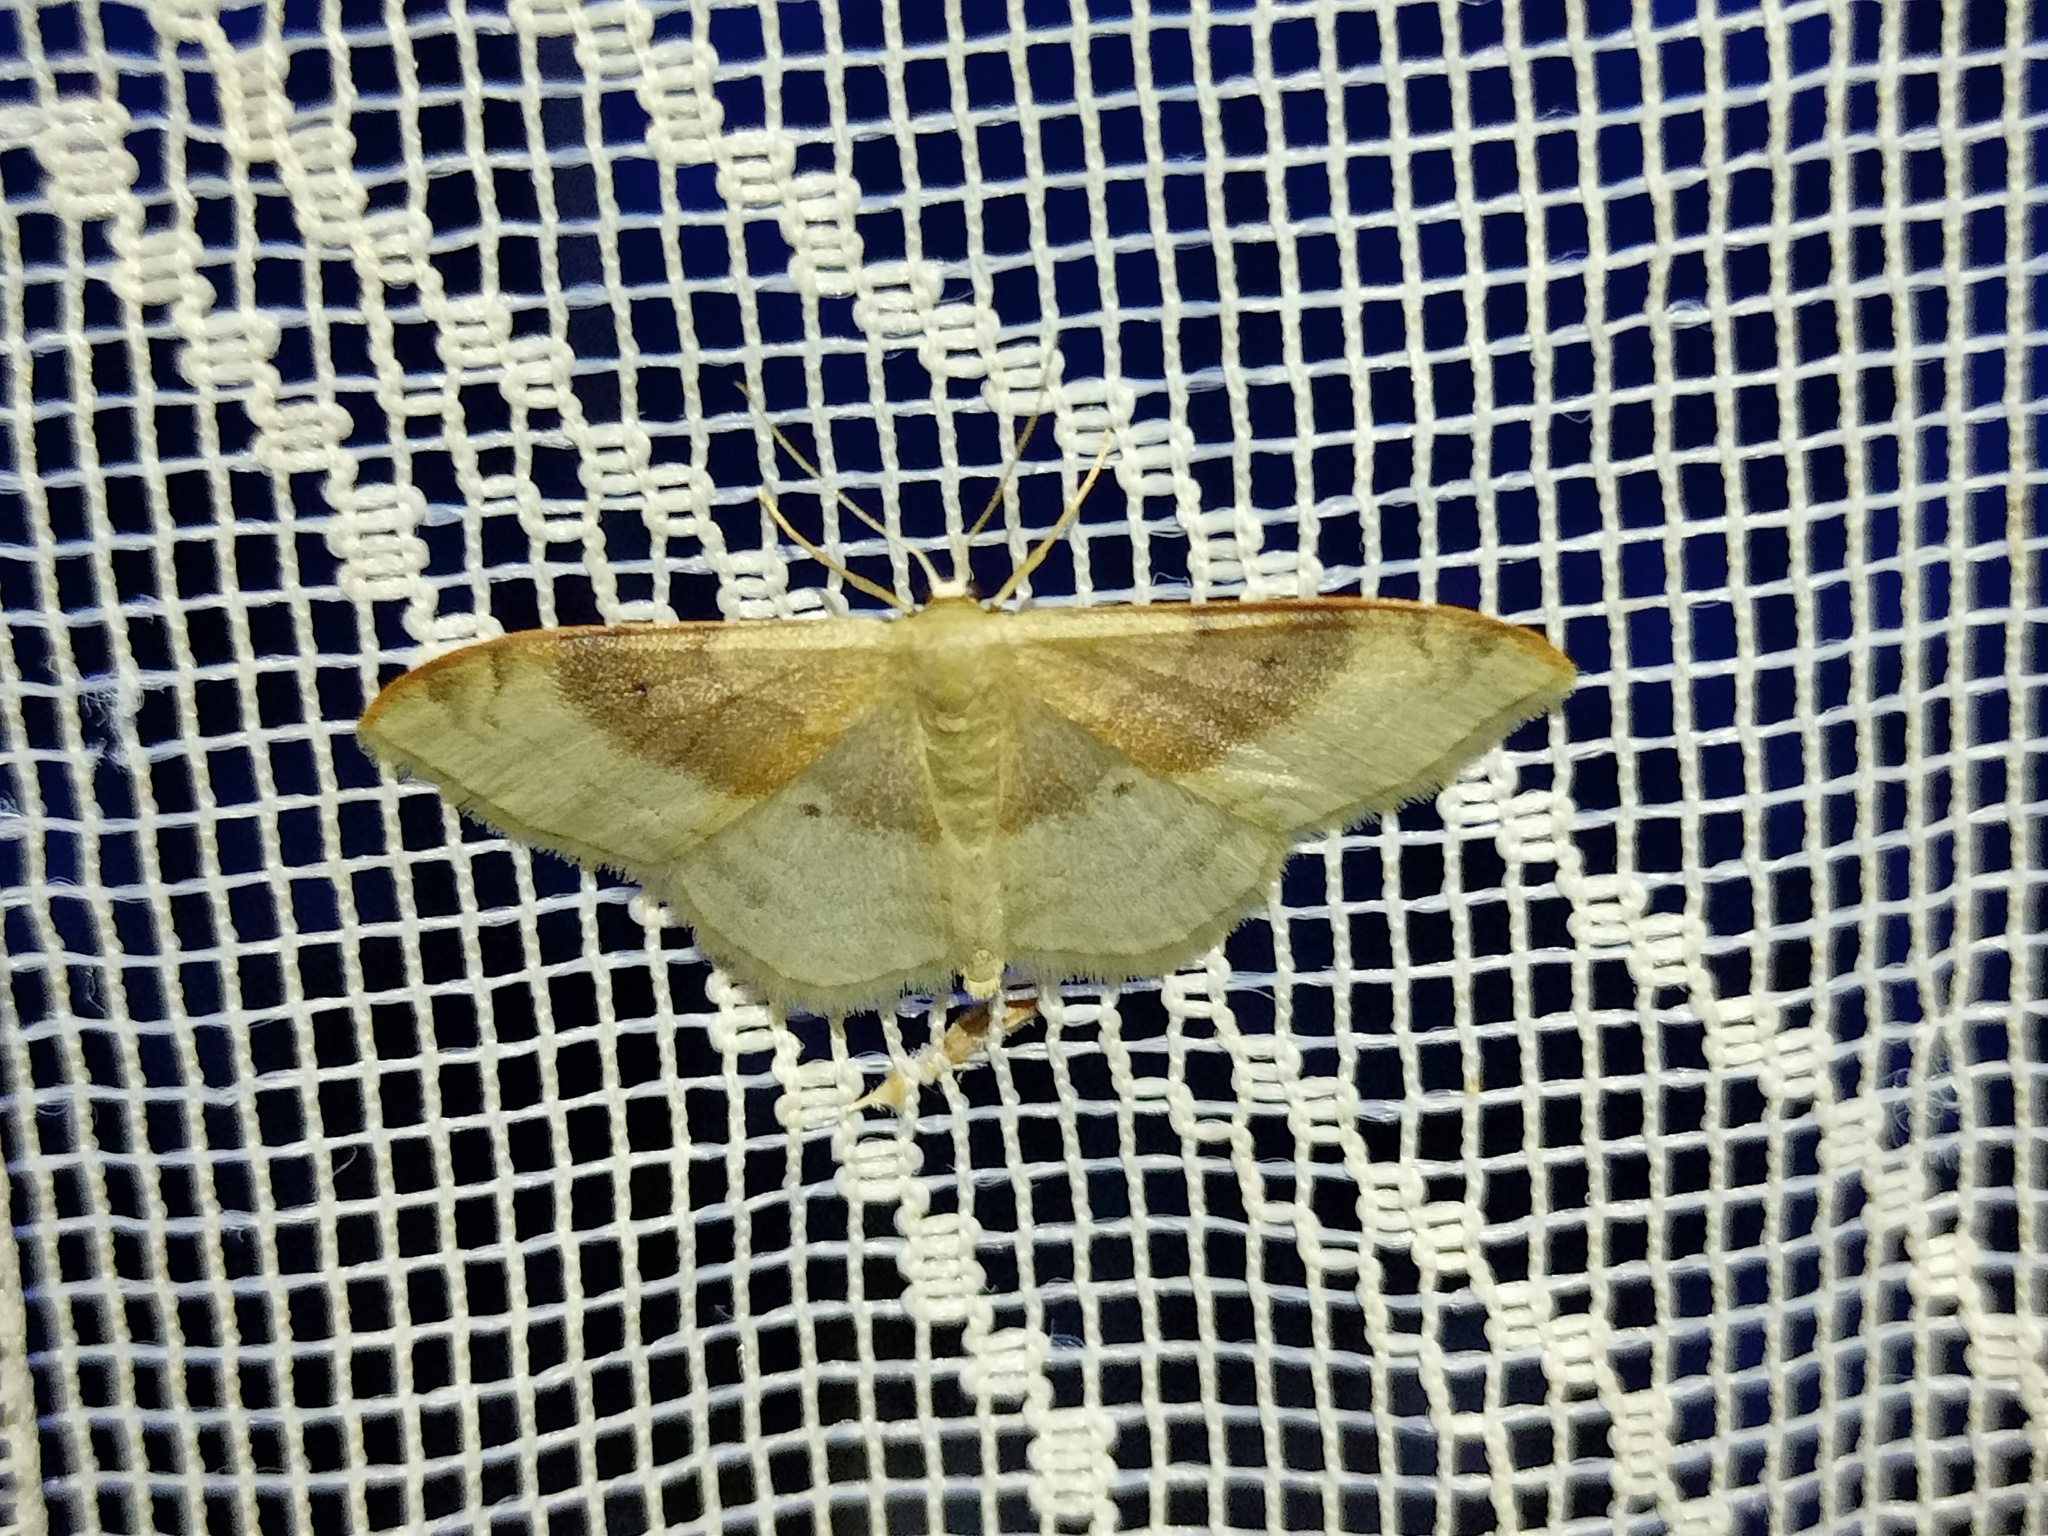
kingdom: Animalia
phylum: Arthropoda
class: Insecta
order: Lepidoptera
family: Geometridae
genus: Idaea
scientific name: Idaea degeneraria
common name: Portland ribbon wave
